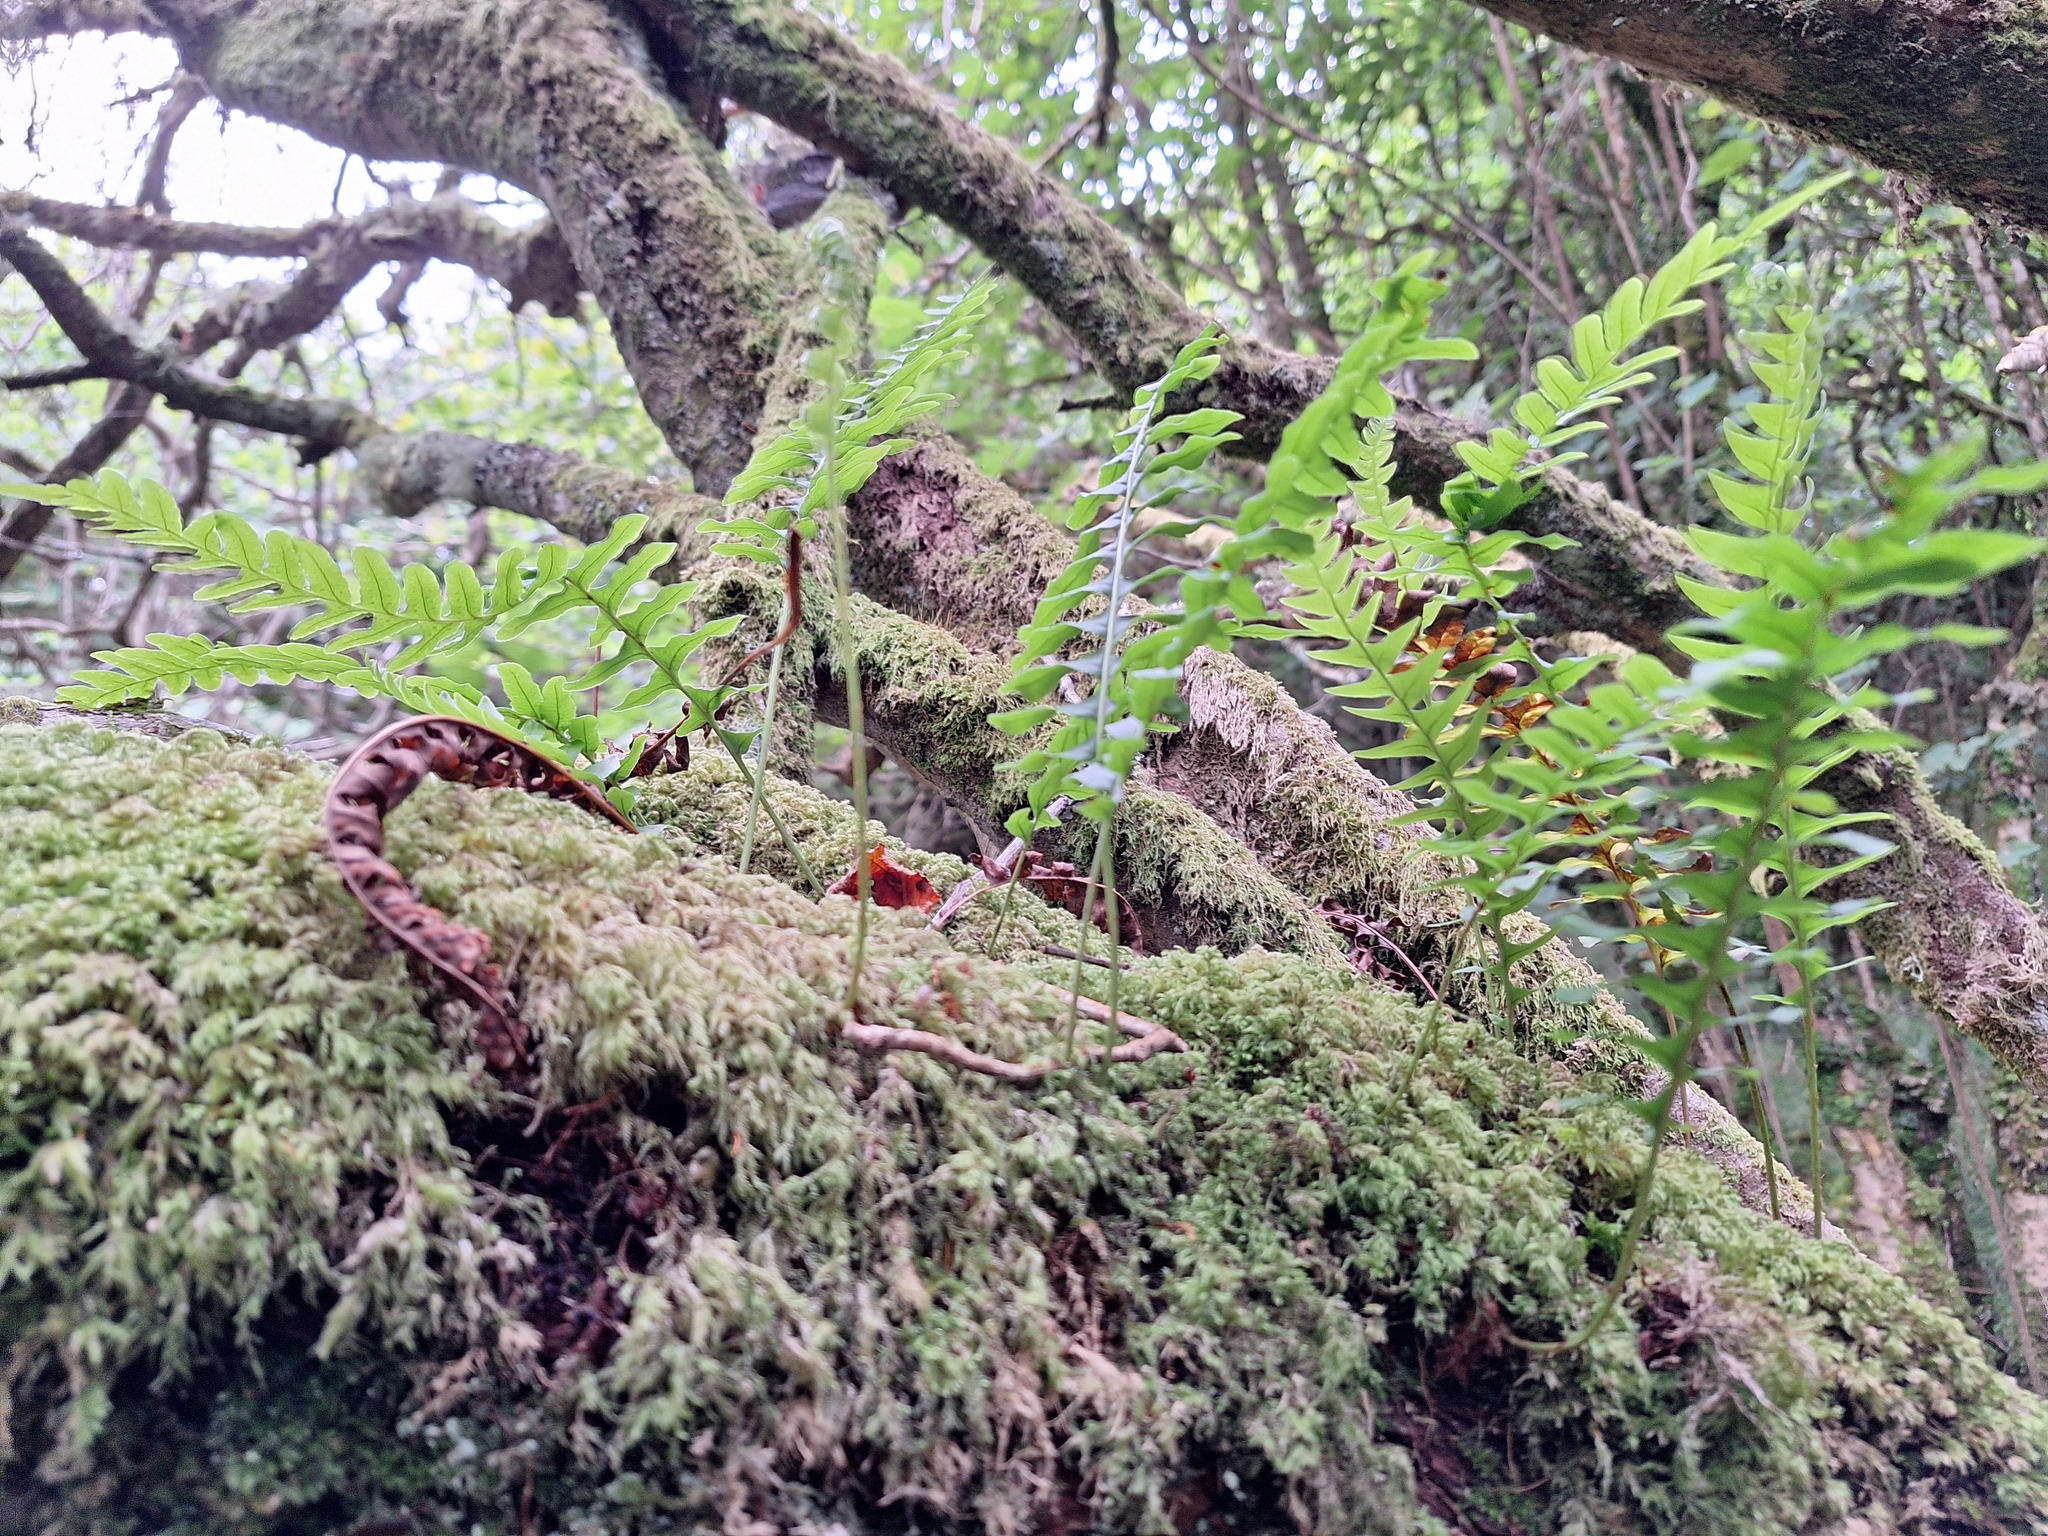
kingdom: Plantae
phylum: Tracheophyta
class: Polypodiopsida
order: Polypodiales
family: Polypodiaceae
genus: Polypodium
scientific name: Polypodium
